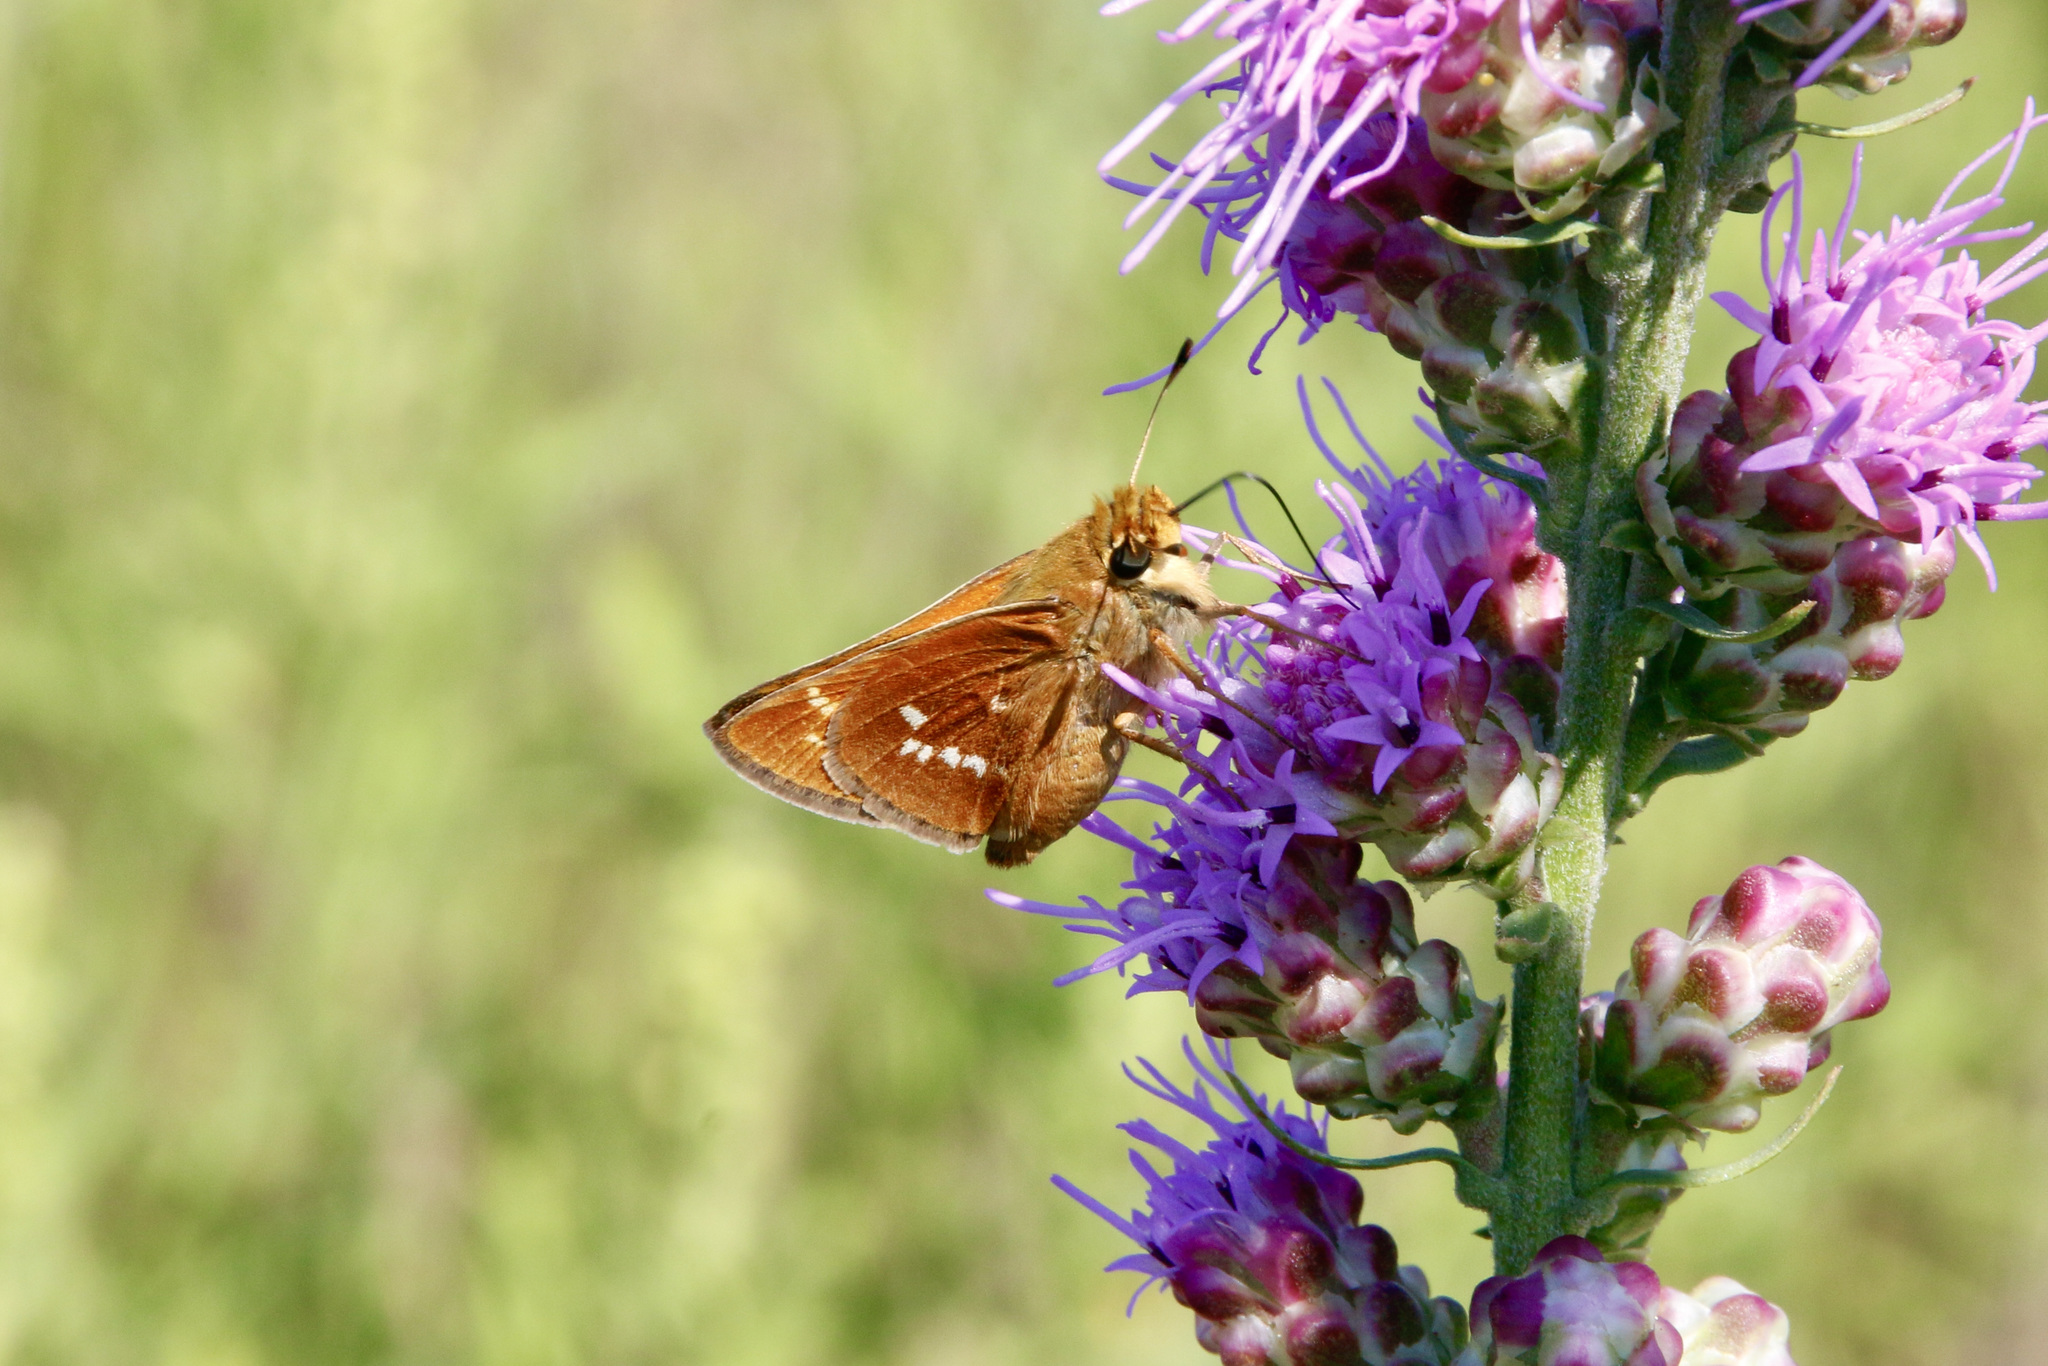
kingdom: Animalia
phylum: Arthropoda
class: Insecta
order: Lepidoptera
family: Hesperiidae
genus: Hesperia
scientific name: Hesperia leonardus
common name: Leonard's skipper
